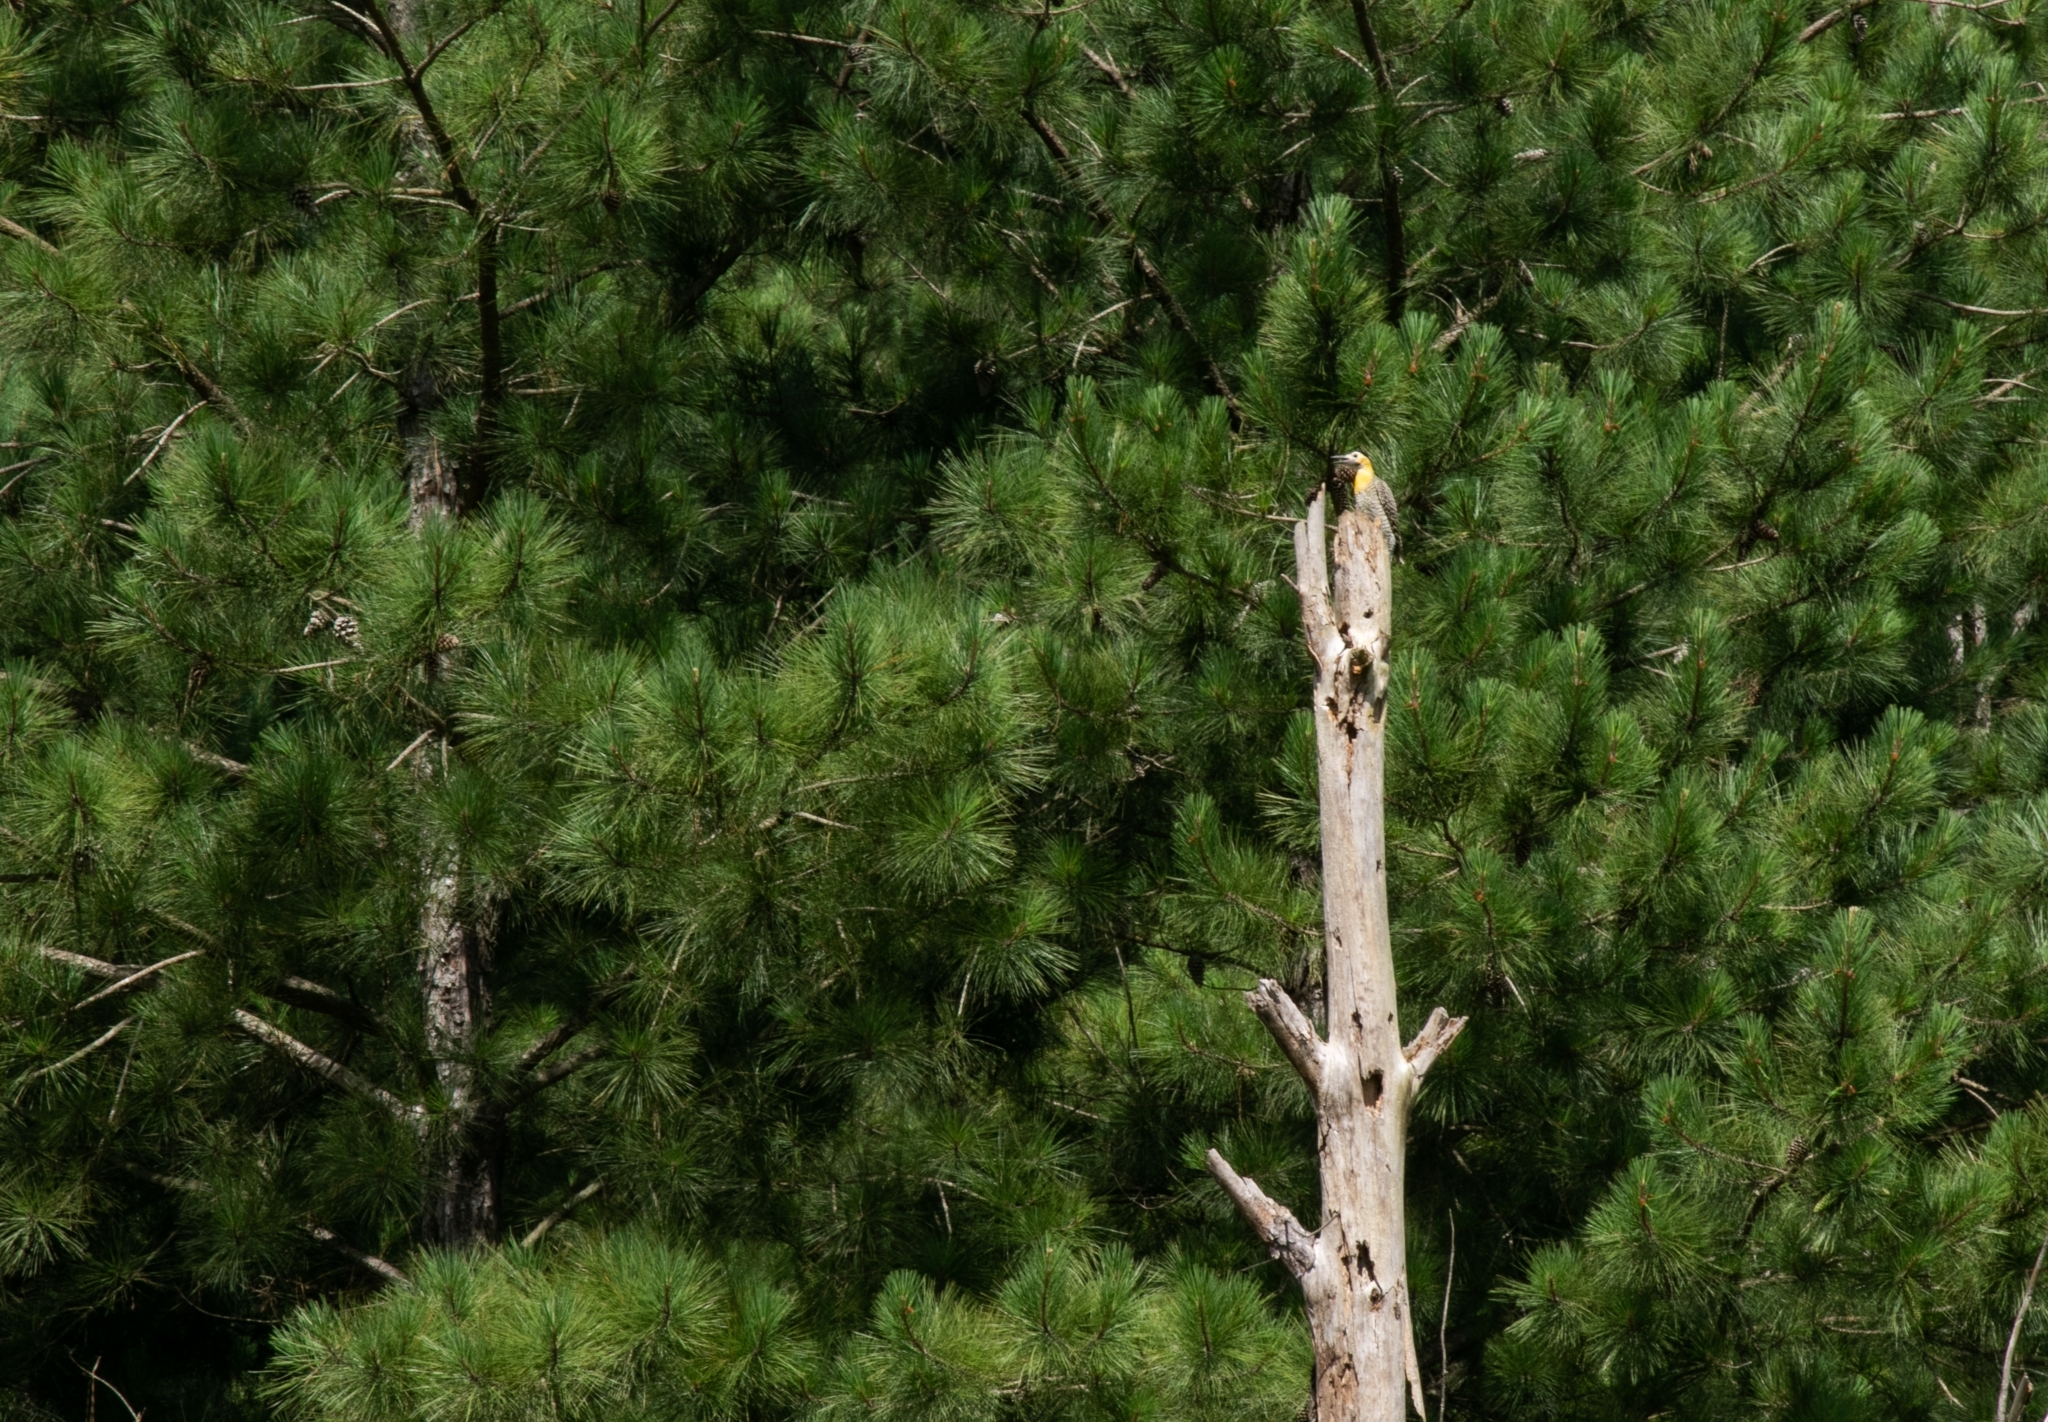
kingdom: Animalia
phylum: Chordata
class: Aves
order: Piciformes
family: Picidae
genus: Colaptes
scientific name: Colaptes campestris
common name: Campo flicker
